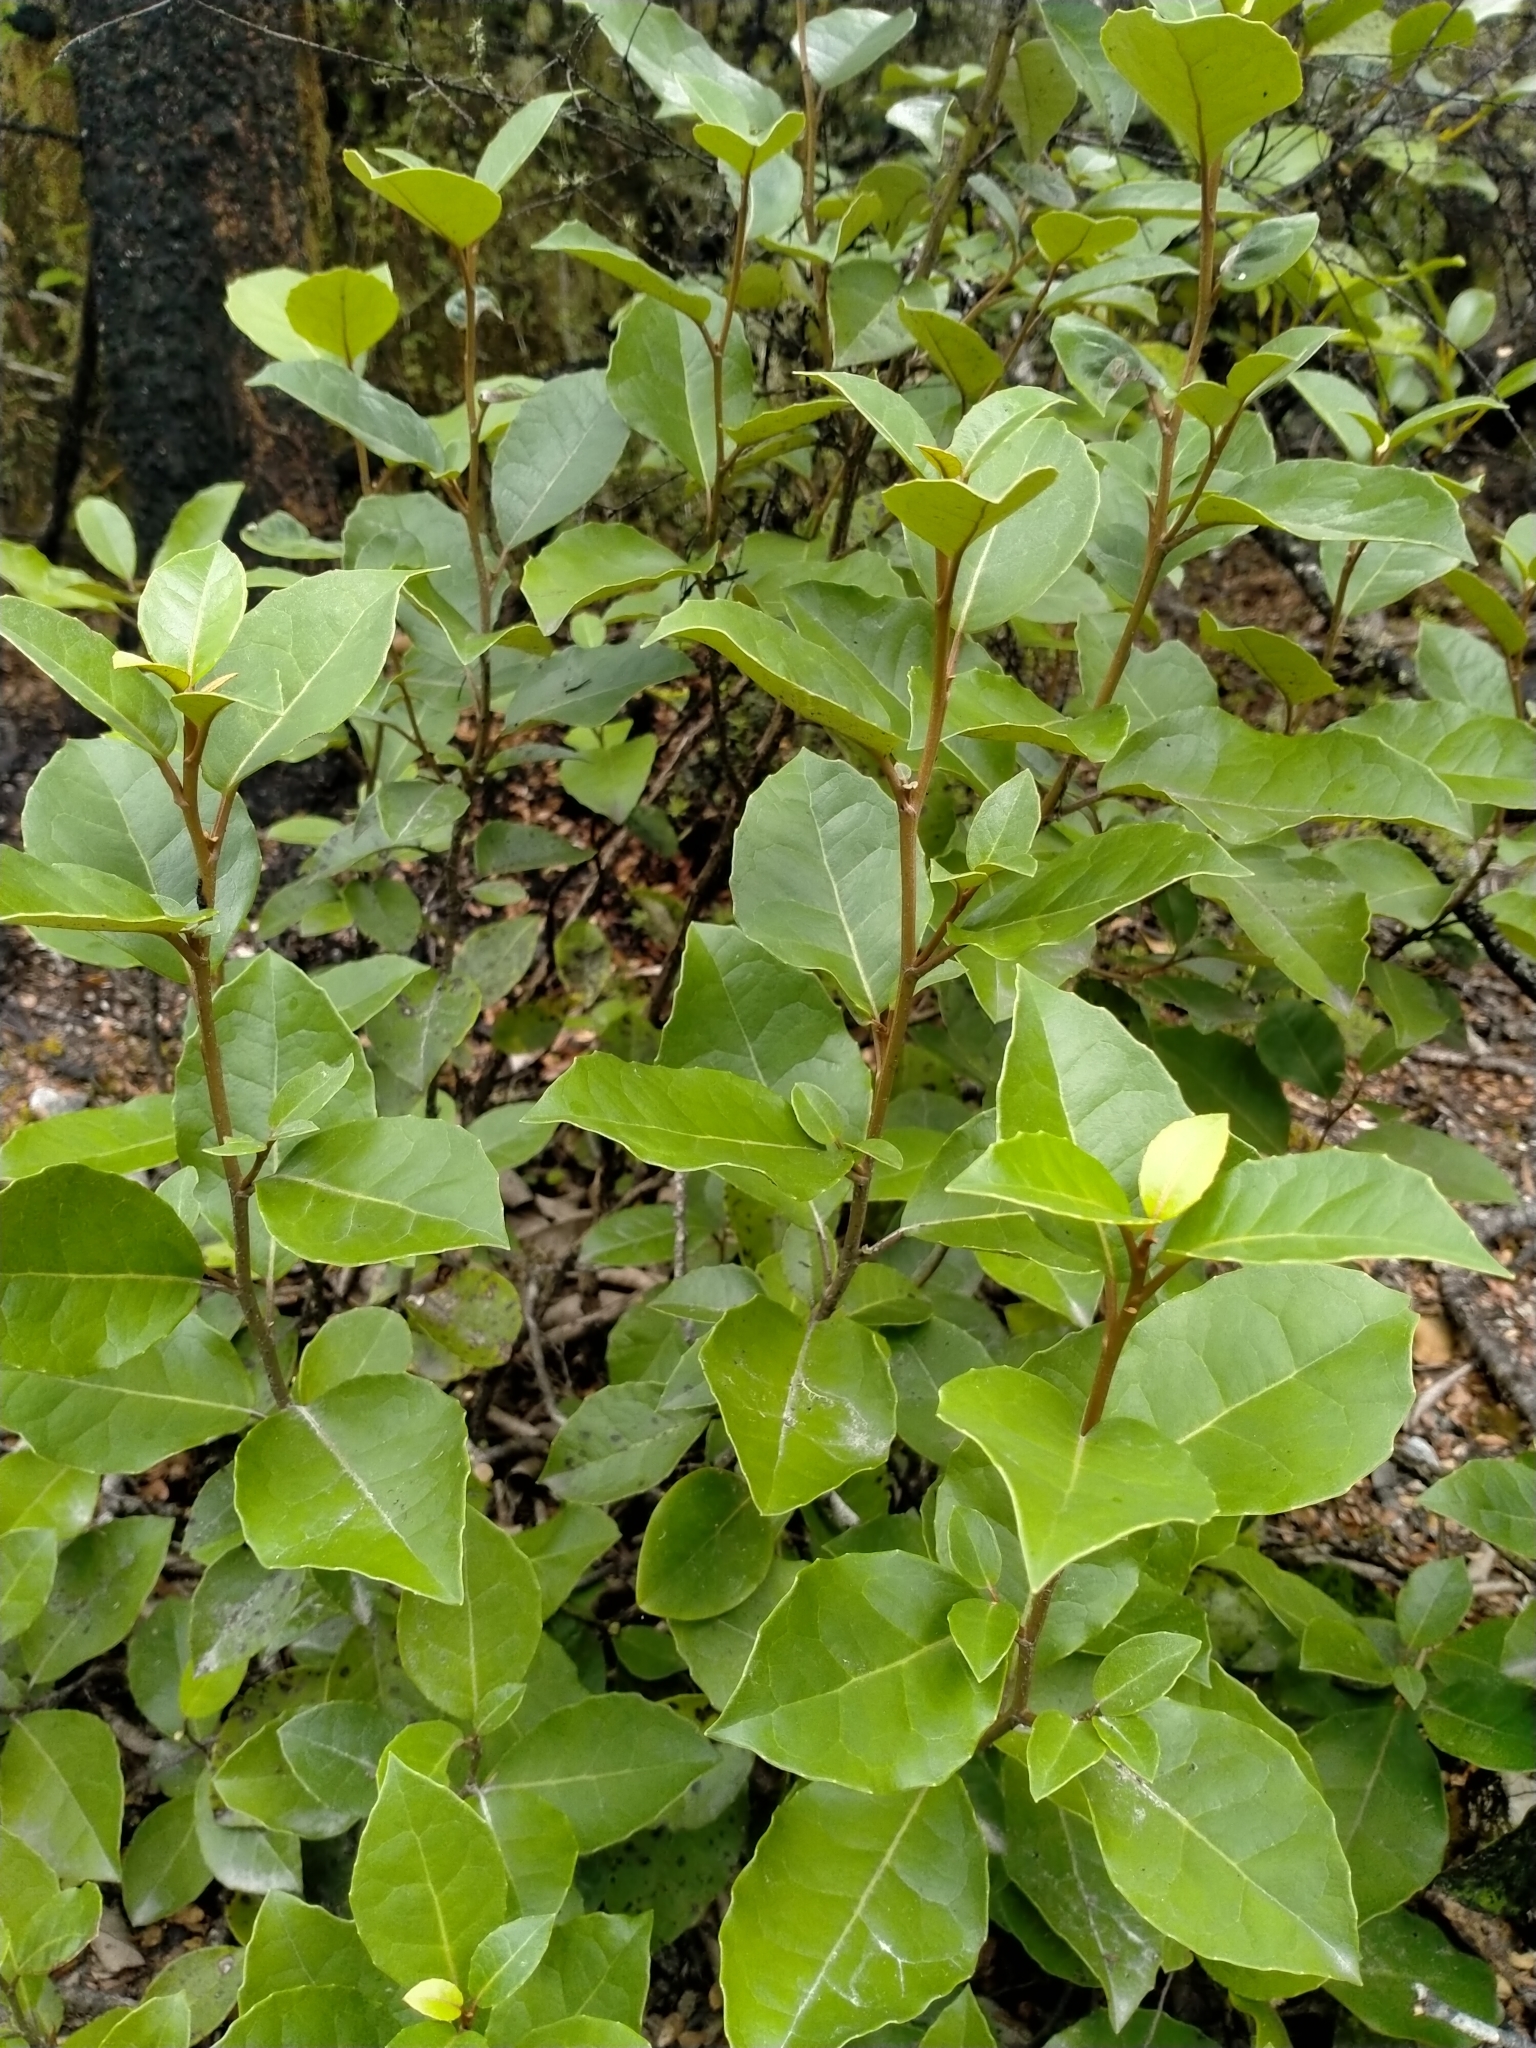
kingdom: Plantae
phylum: Tracheophyta
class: Magnoliopsida
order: Asterales
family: Asteraceae
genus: Olearia
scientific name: Olearia arborescens
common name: Glossy tree daisy
